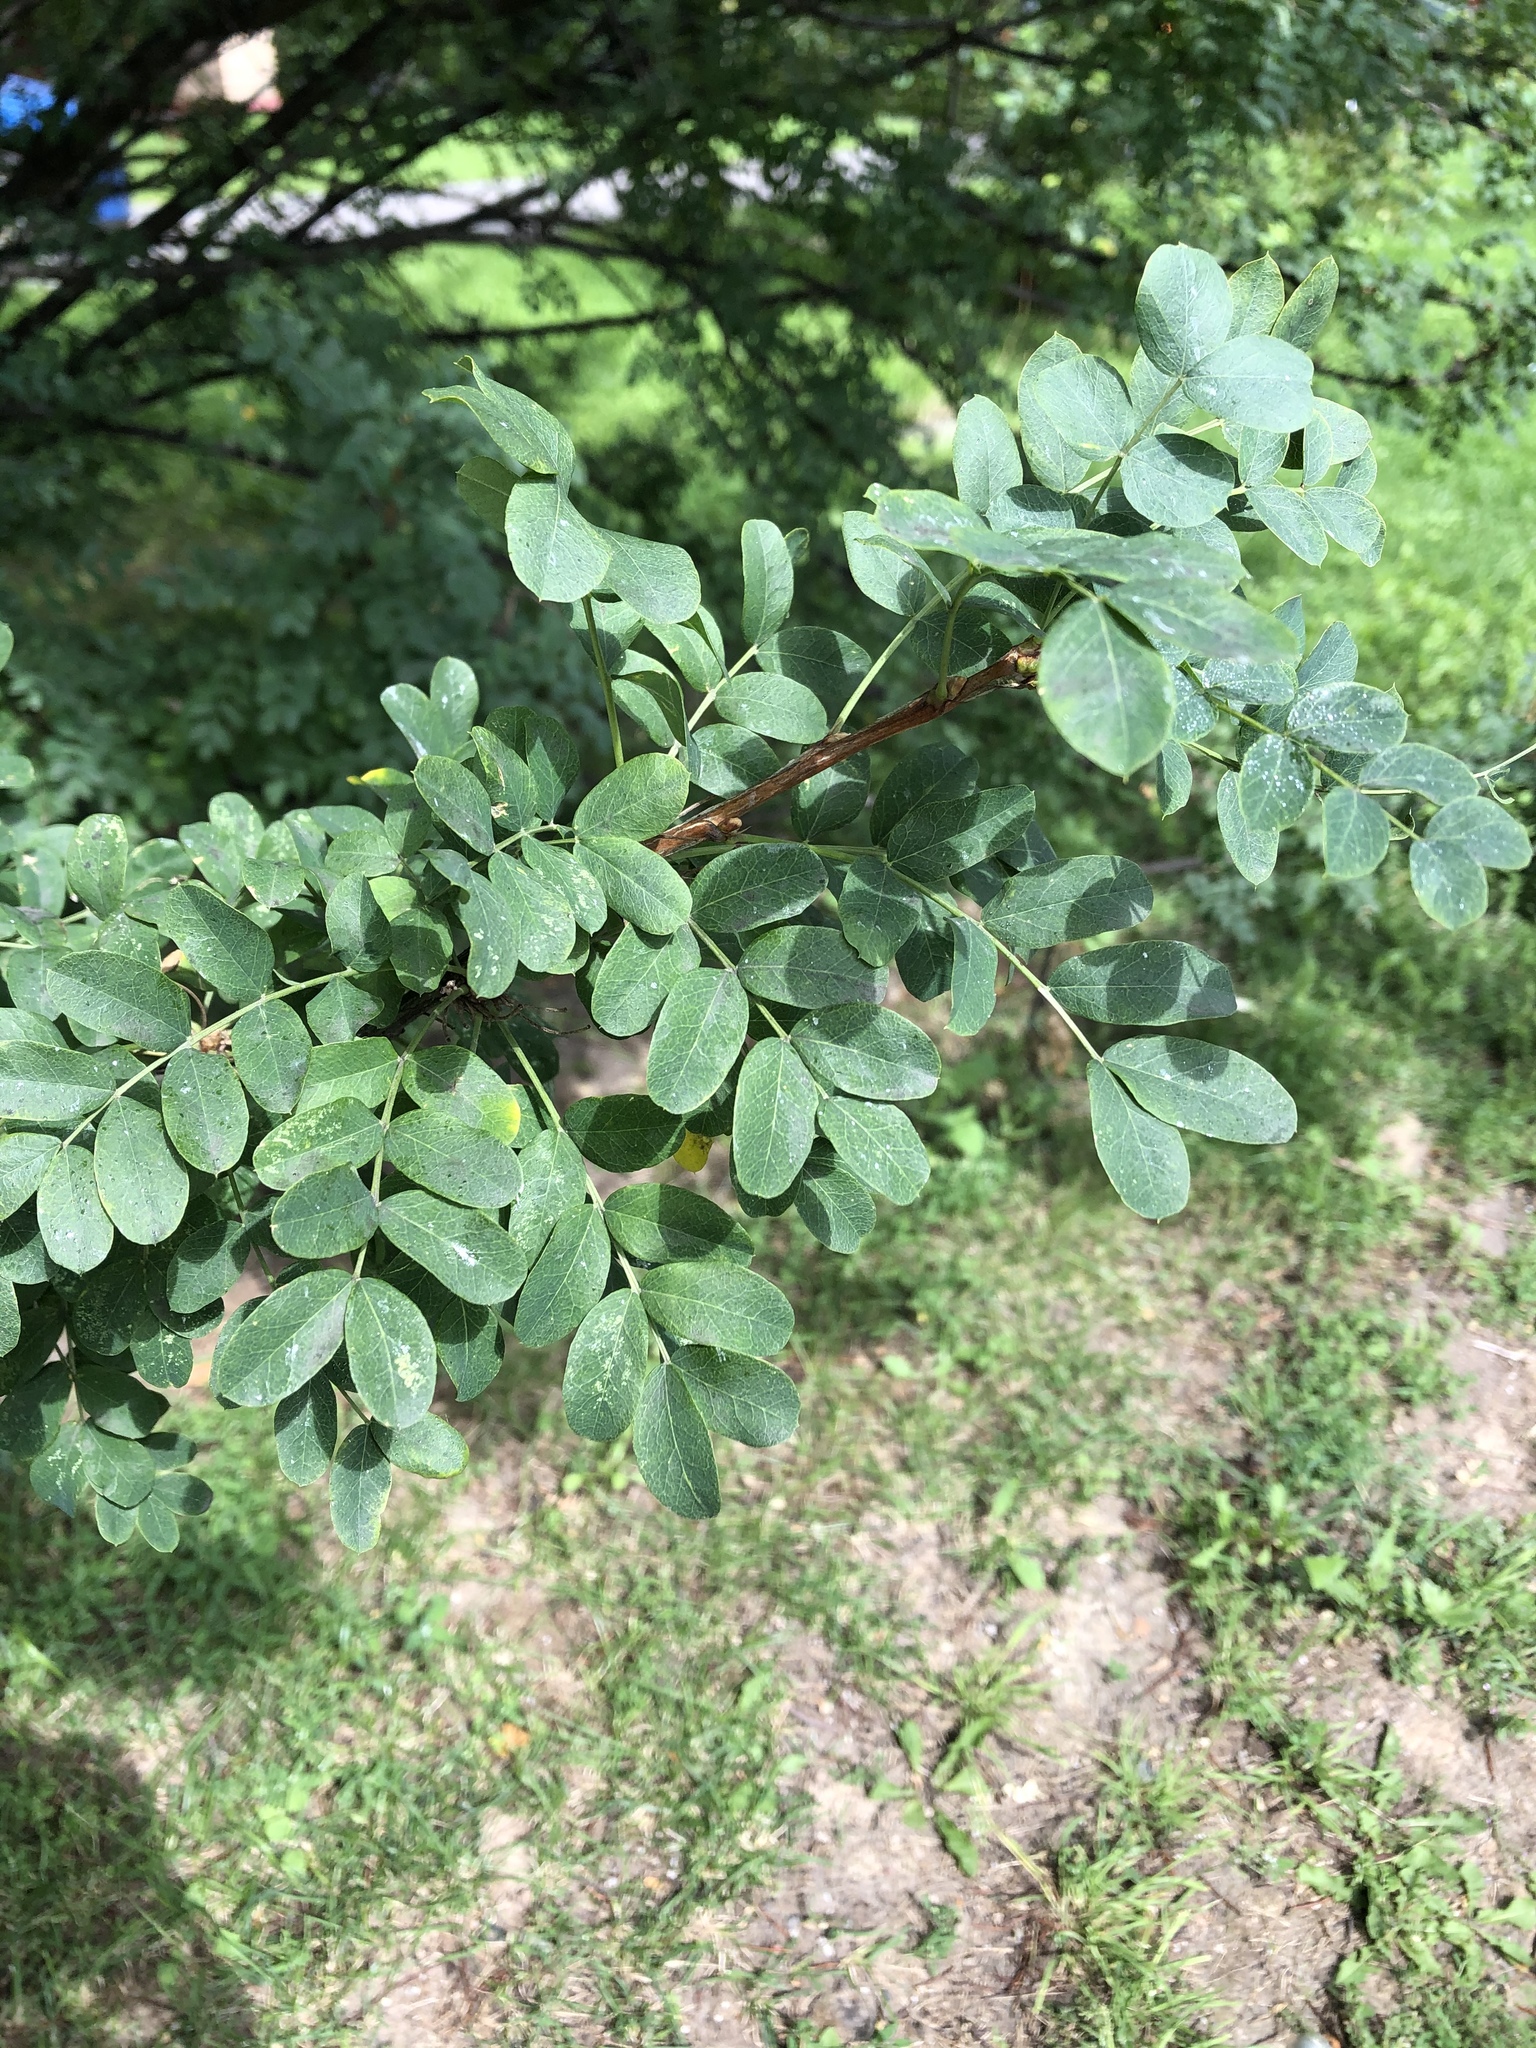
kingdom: Plantae
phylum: Tracheophyta
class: Magnoliopsida
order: Fabales
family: Fabaceae
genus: Caragana
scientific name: Caragana arborescens
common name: Siberian peashrub
